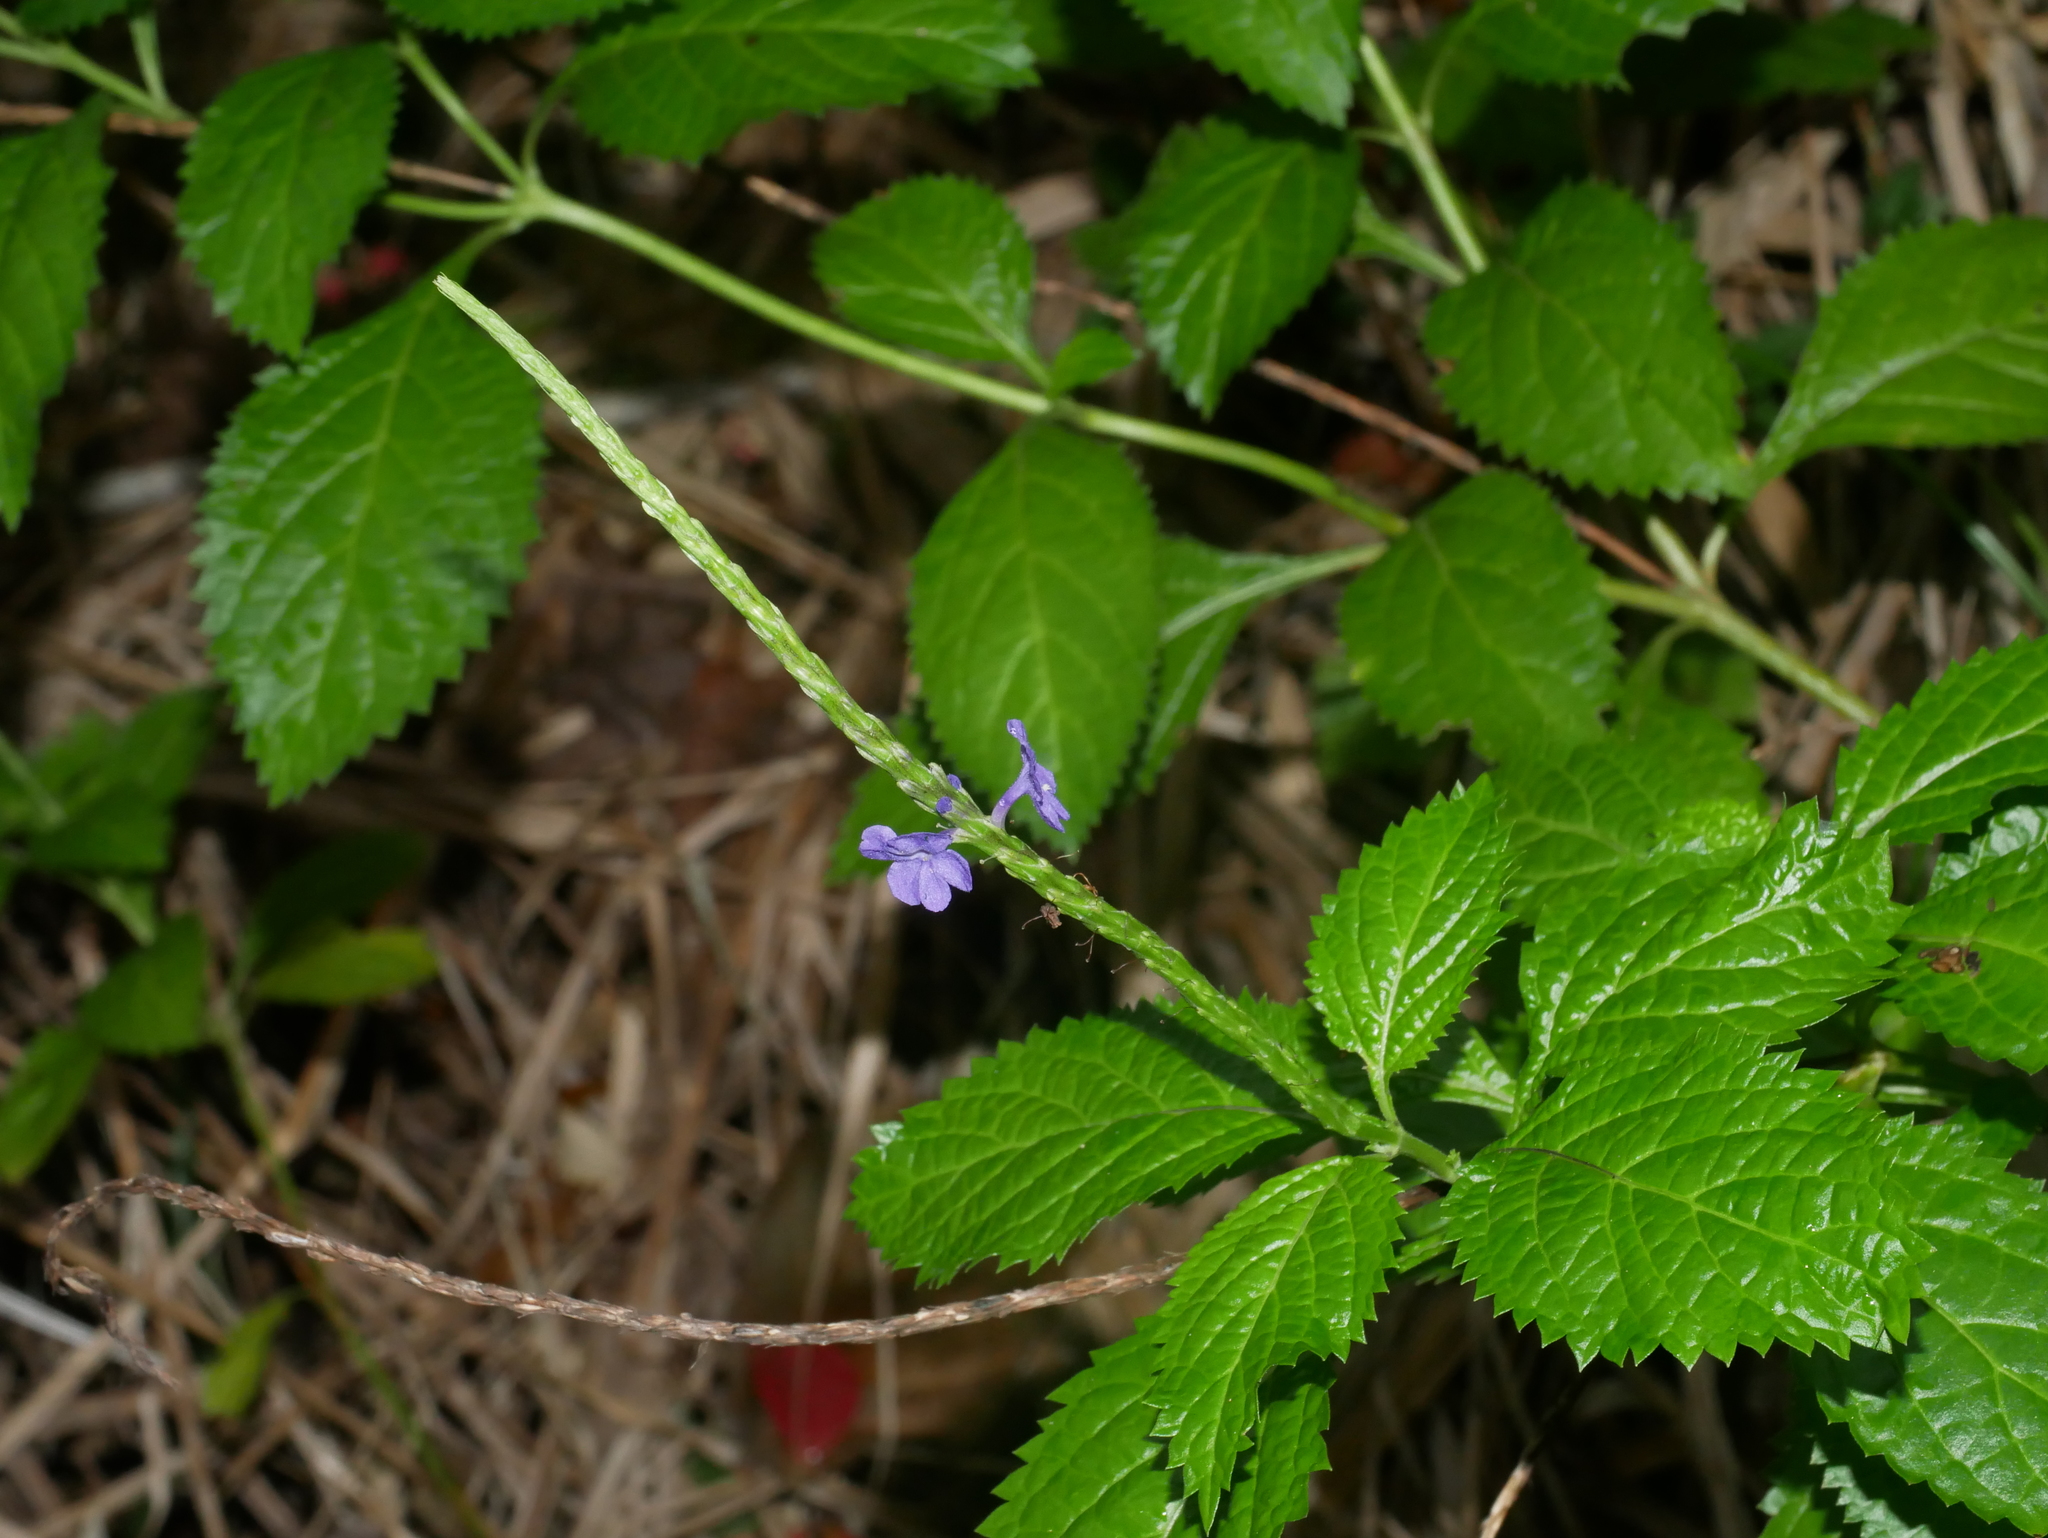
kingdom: Plantae
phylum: Tracheophyta
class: Magnoliopsida
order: Lamiales
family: Verbenaceae
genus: Stachytarpheta
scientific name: Stachytarpheta urticifolia
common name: Nettleleaf velvetberry
